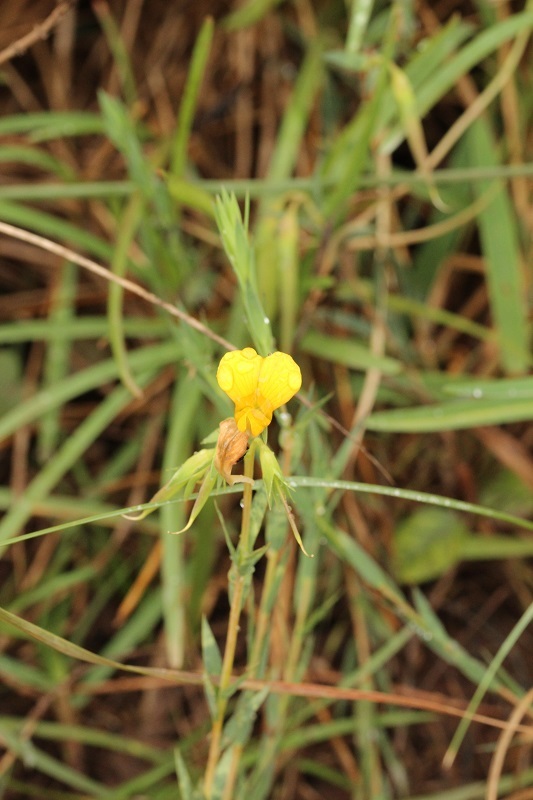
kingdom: Plantae
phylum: Tracheophyta
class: Magnoliopsida
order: Fabales
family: Fabaceae
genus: Aspalathus
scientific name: Aspalathus angustifolia
